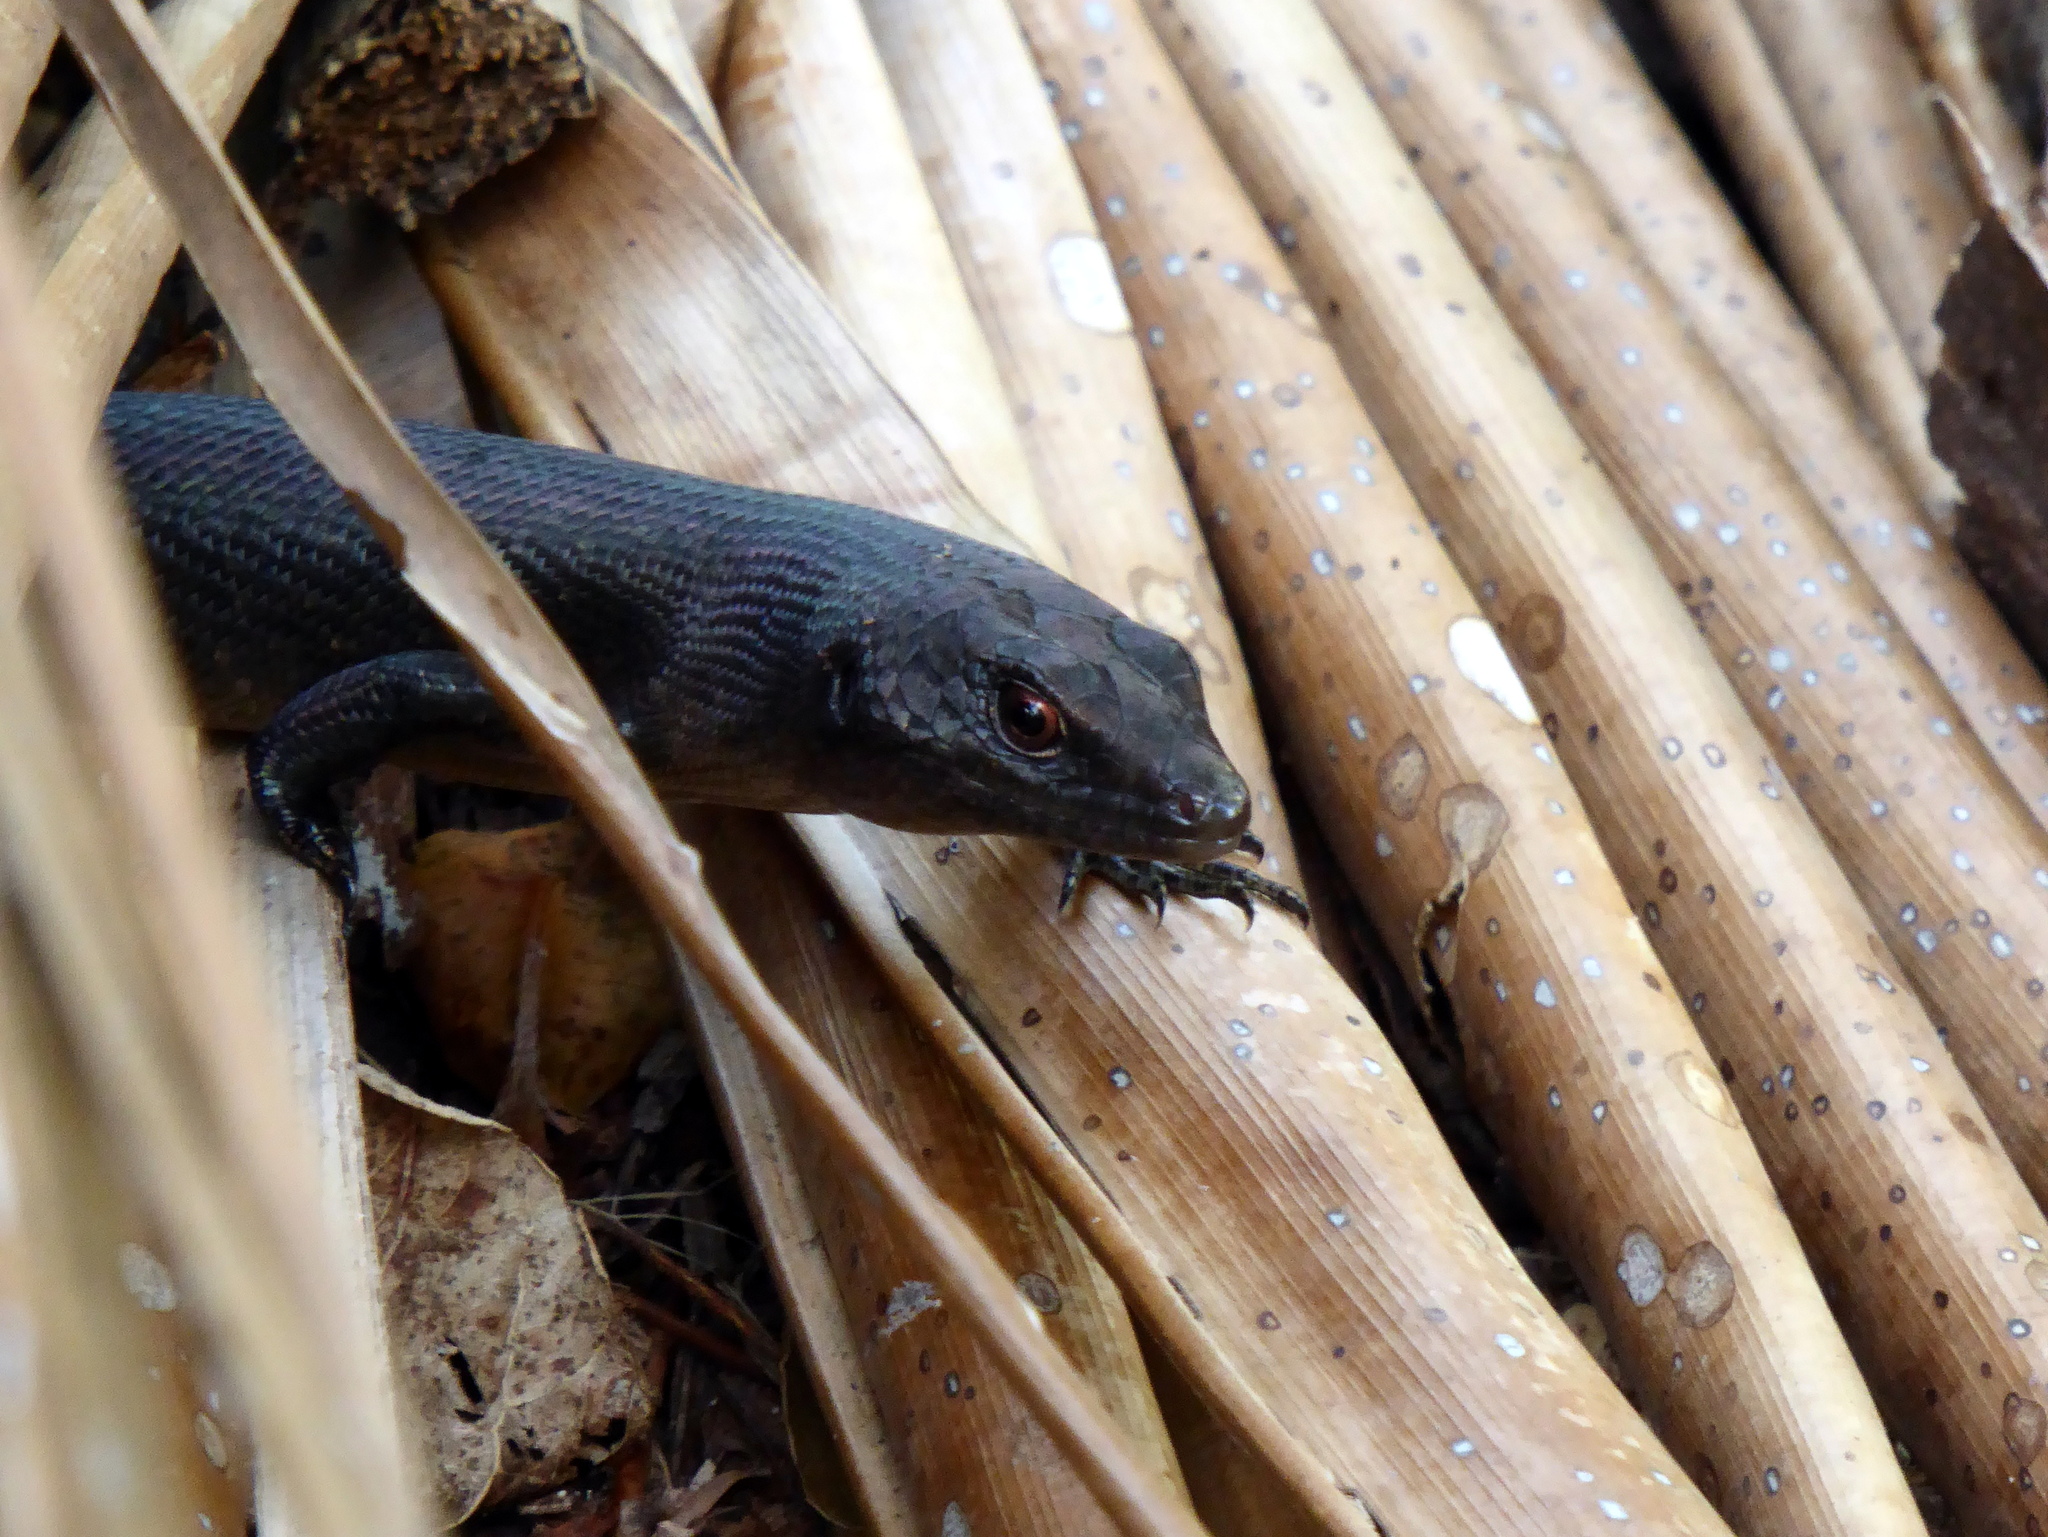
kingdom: Animalia
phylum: Chordata
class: Squamata
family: Scincidae
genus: Emoia
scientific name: Emoia nigra
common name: Black emo skink
